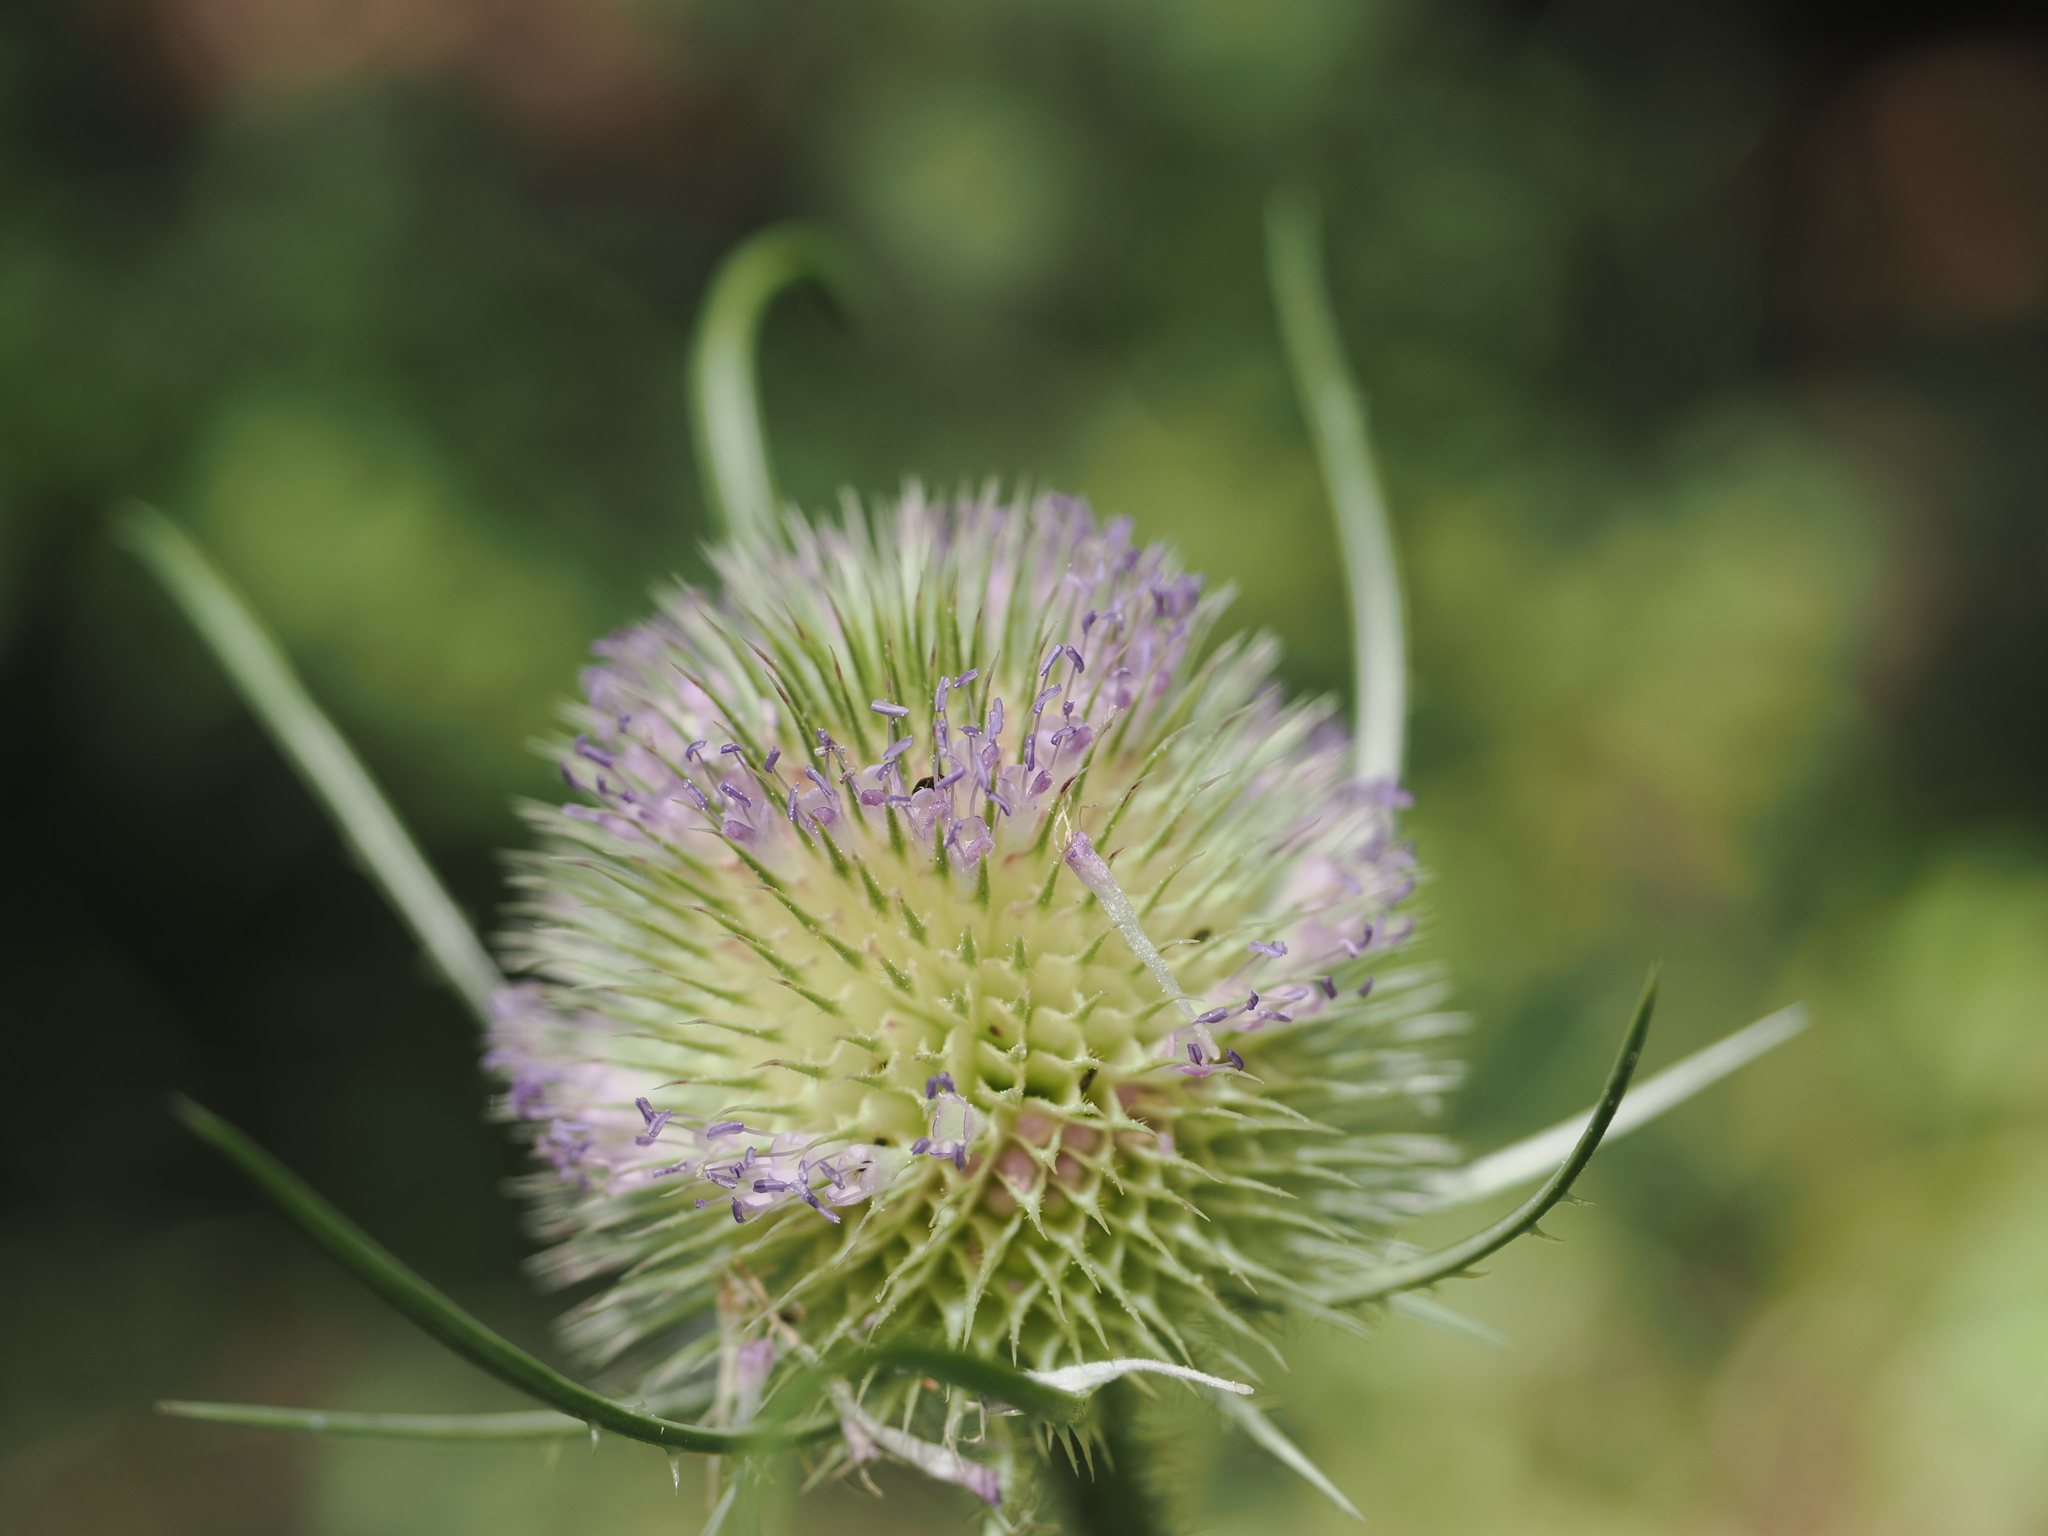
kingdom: Plantae
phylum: Tracheophyta
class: Magnoliopsida
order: Dipsacales
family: Caprifoliaceae
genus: Dipsacus
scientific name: Dipsacus fullonum
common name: Teasel
